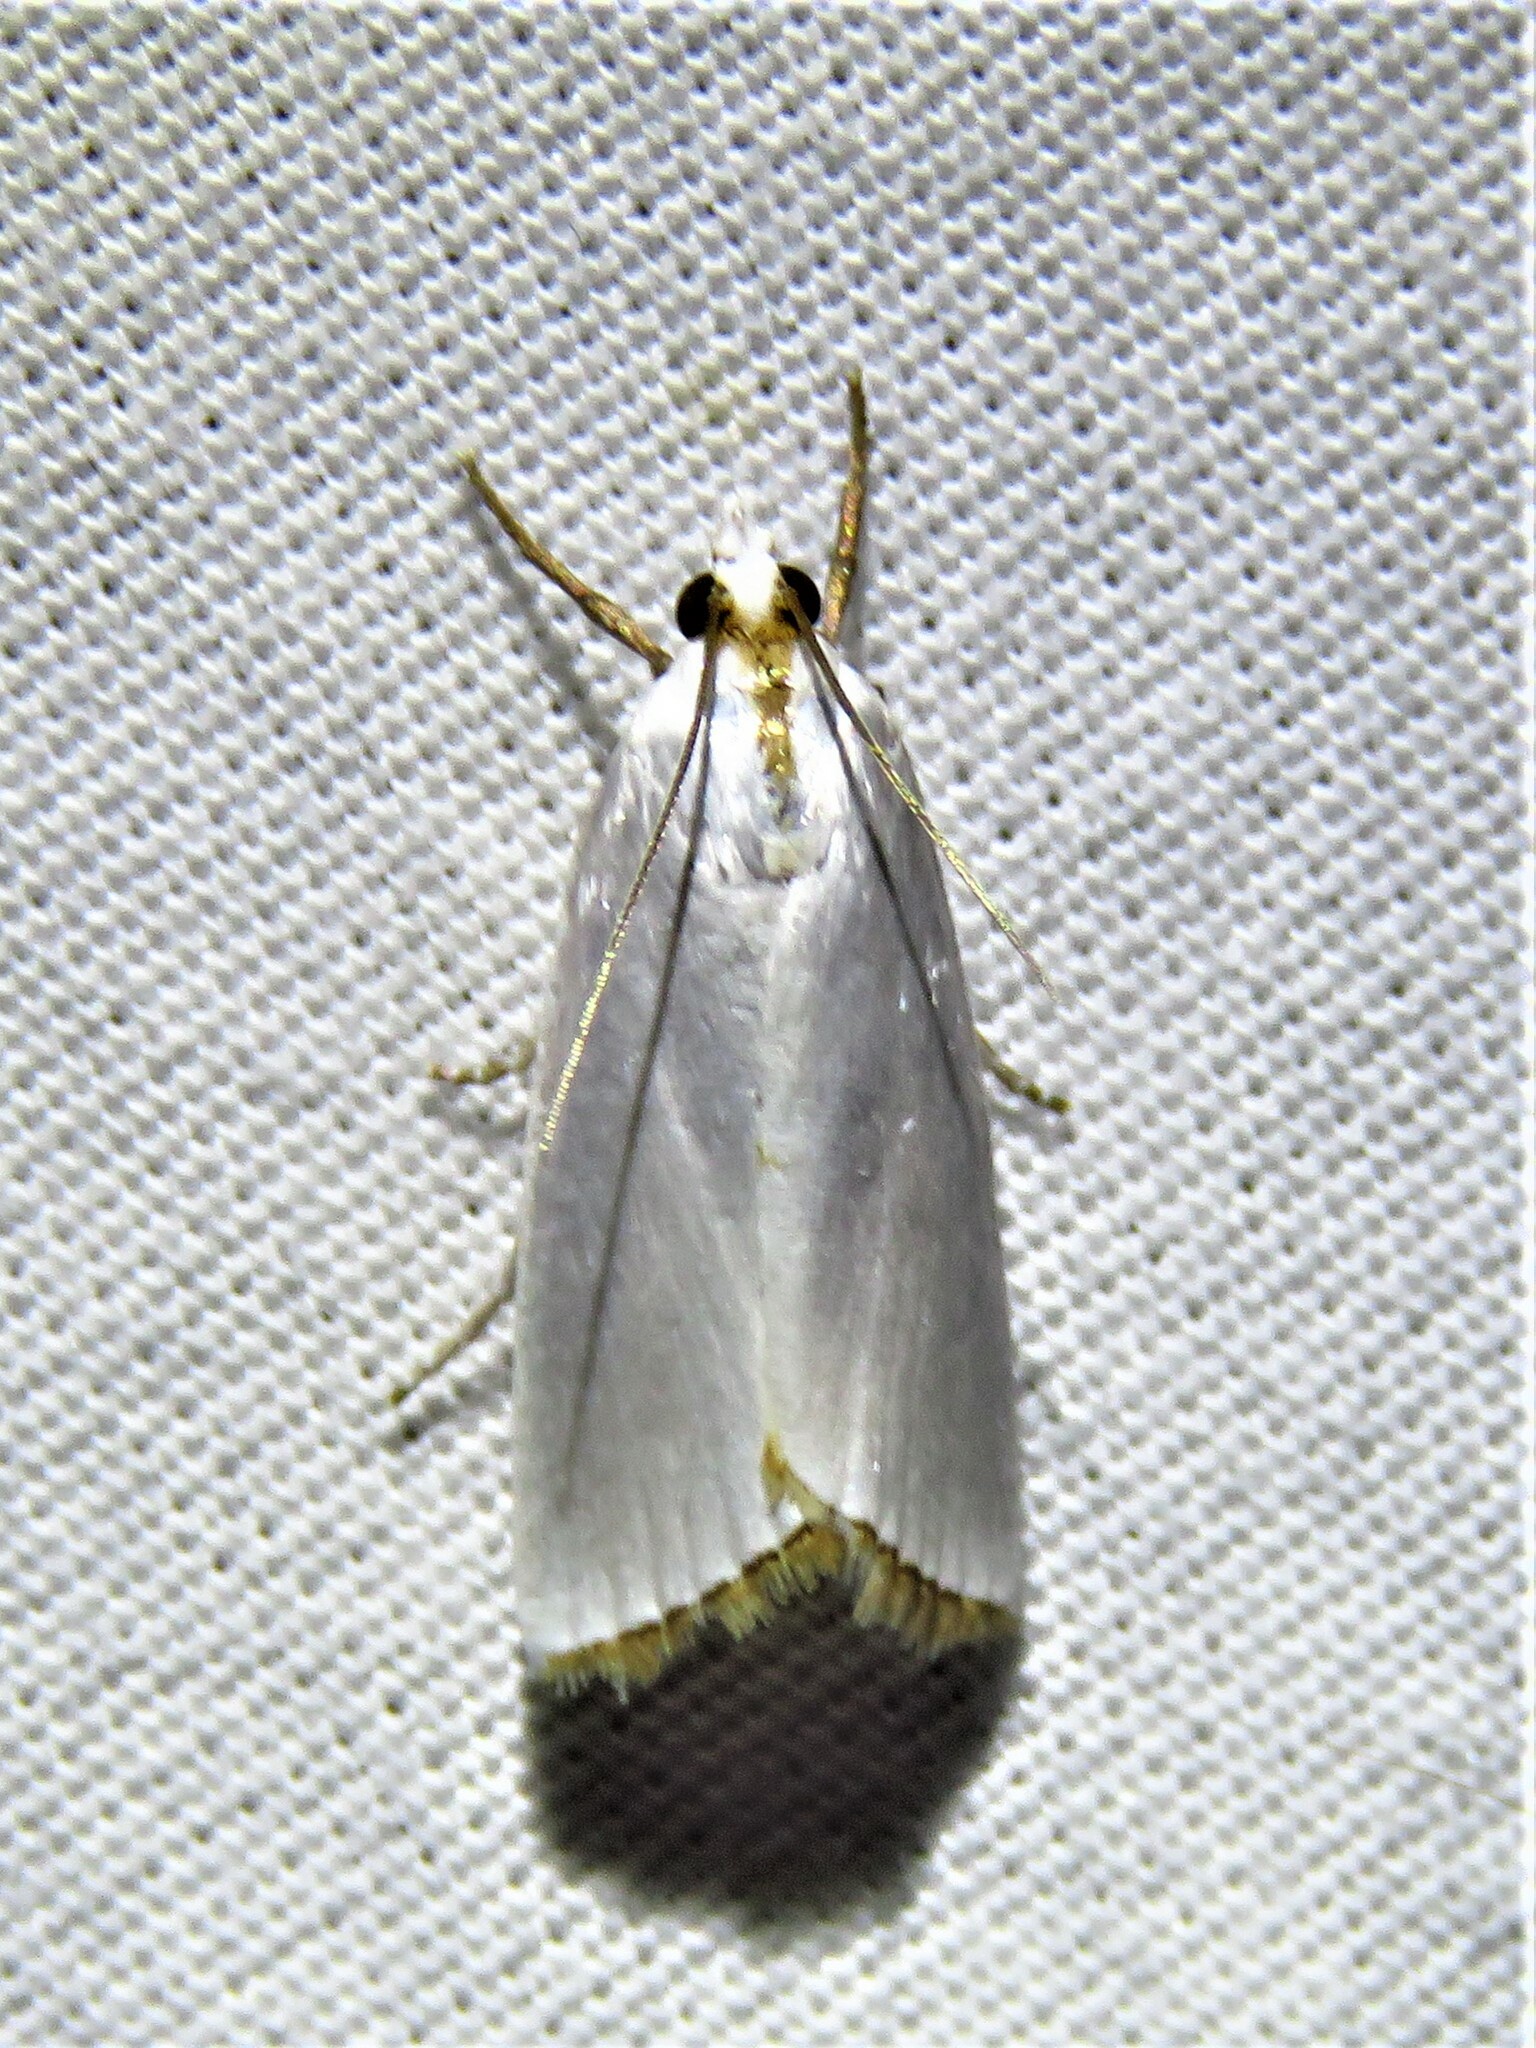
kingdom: Animalia
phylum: Arthropoda
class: Insecta
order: Lepidoptera
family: Crambidae
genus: Argyria
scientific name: Argyria nivalis
